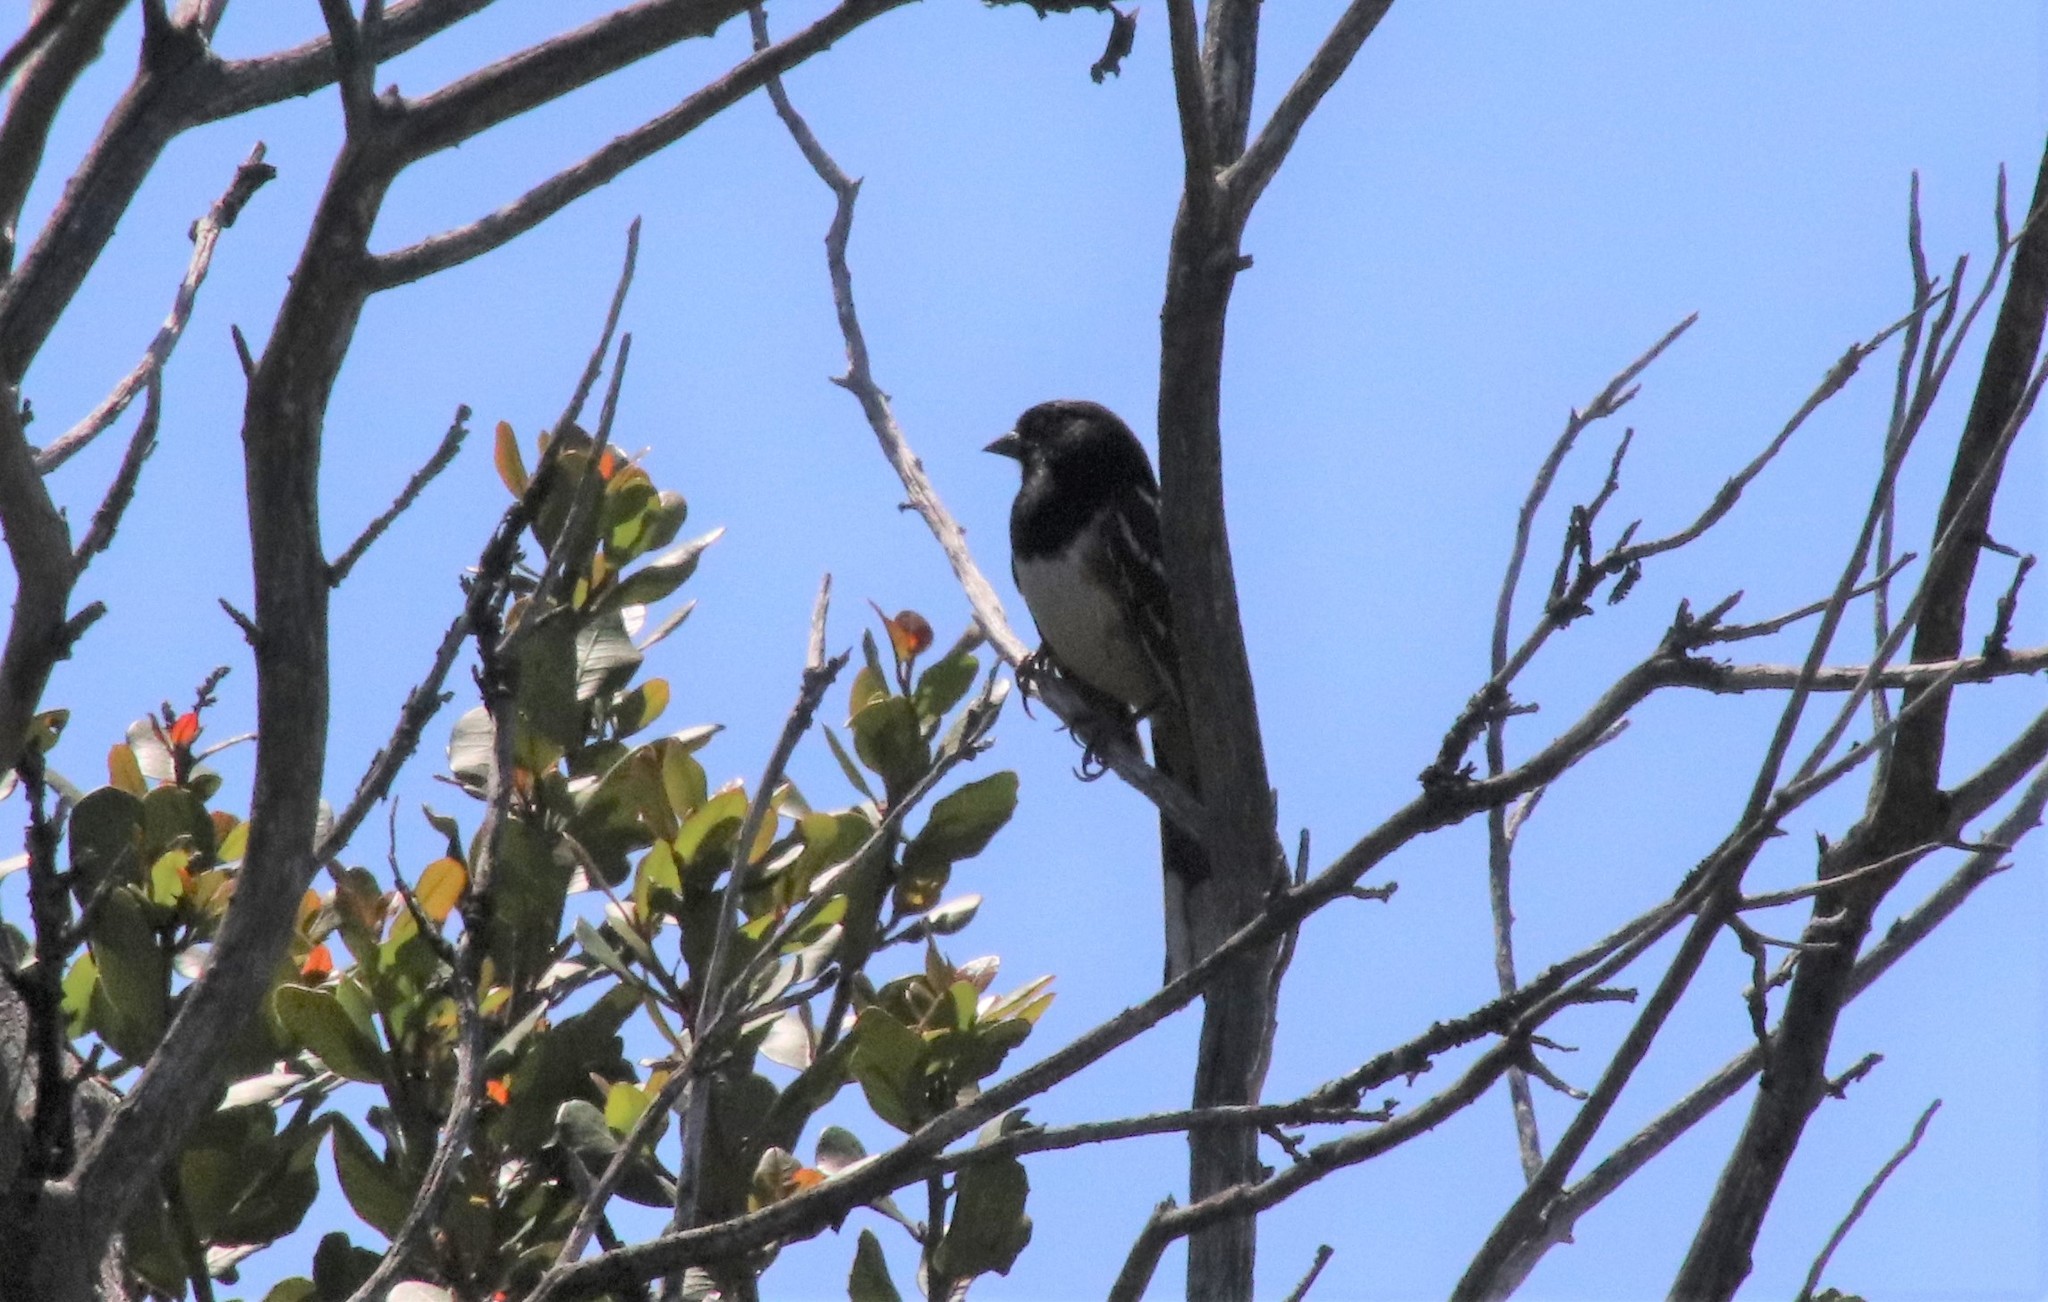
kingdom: Animalia
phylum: Chordata
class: Aves
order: Passeriformes
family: Passerellidae
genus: Pipilo
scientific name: Pipilo maculatus
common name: Spotted towhee
